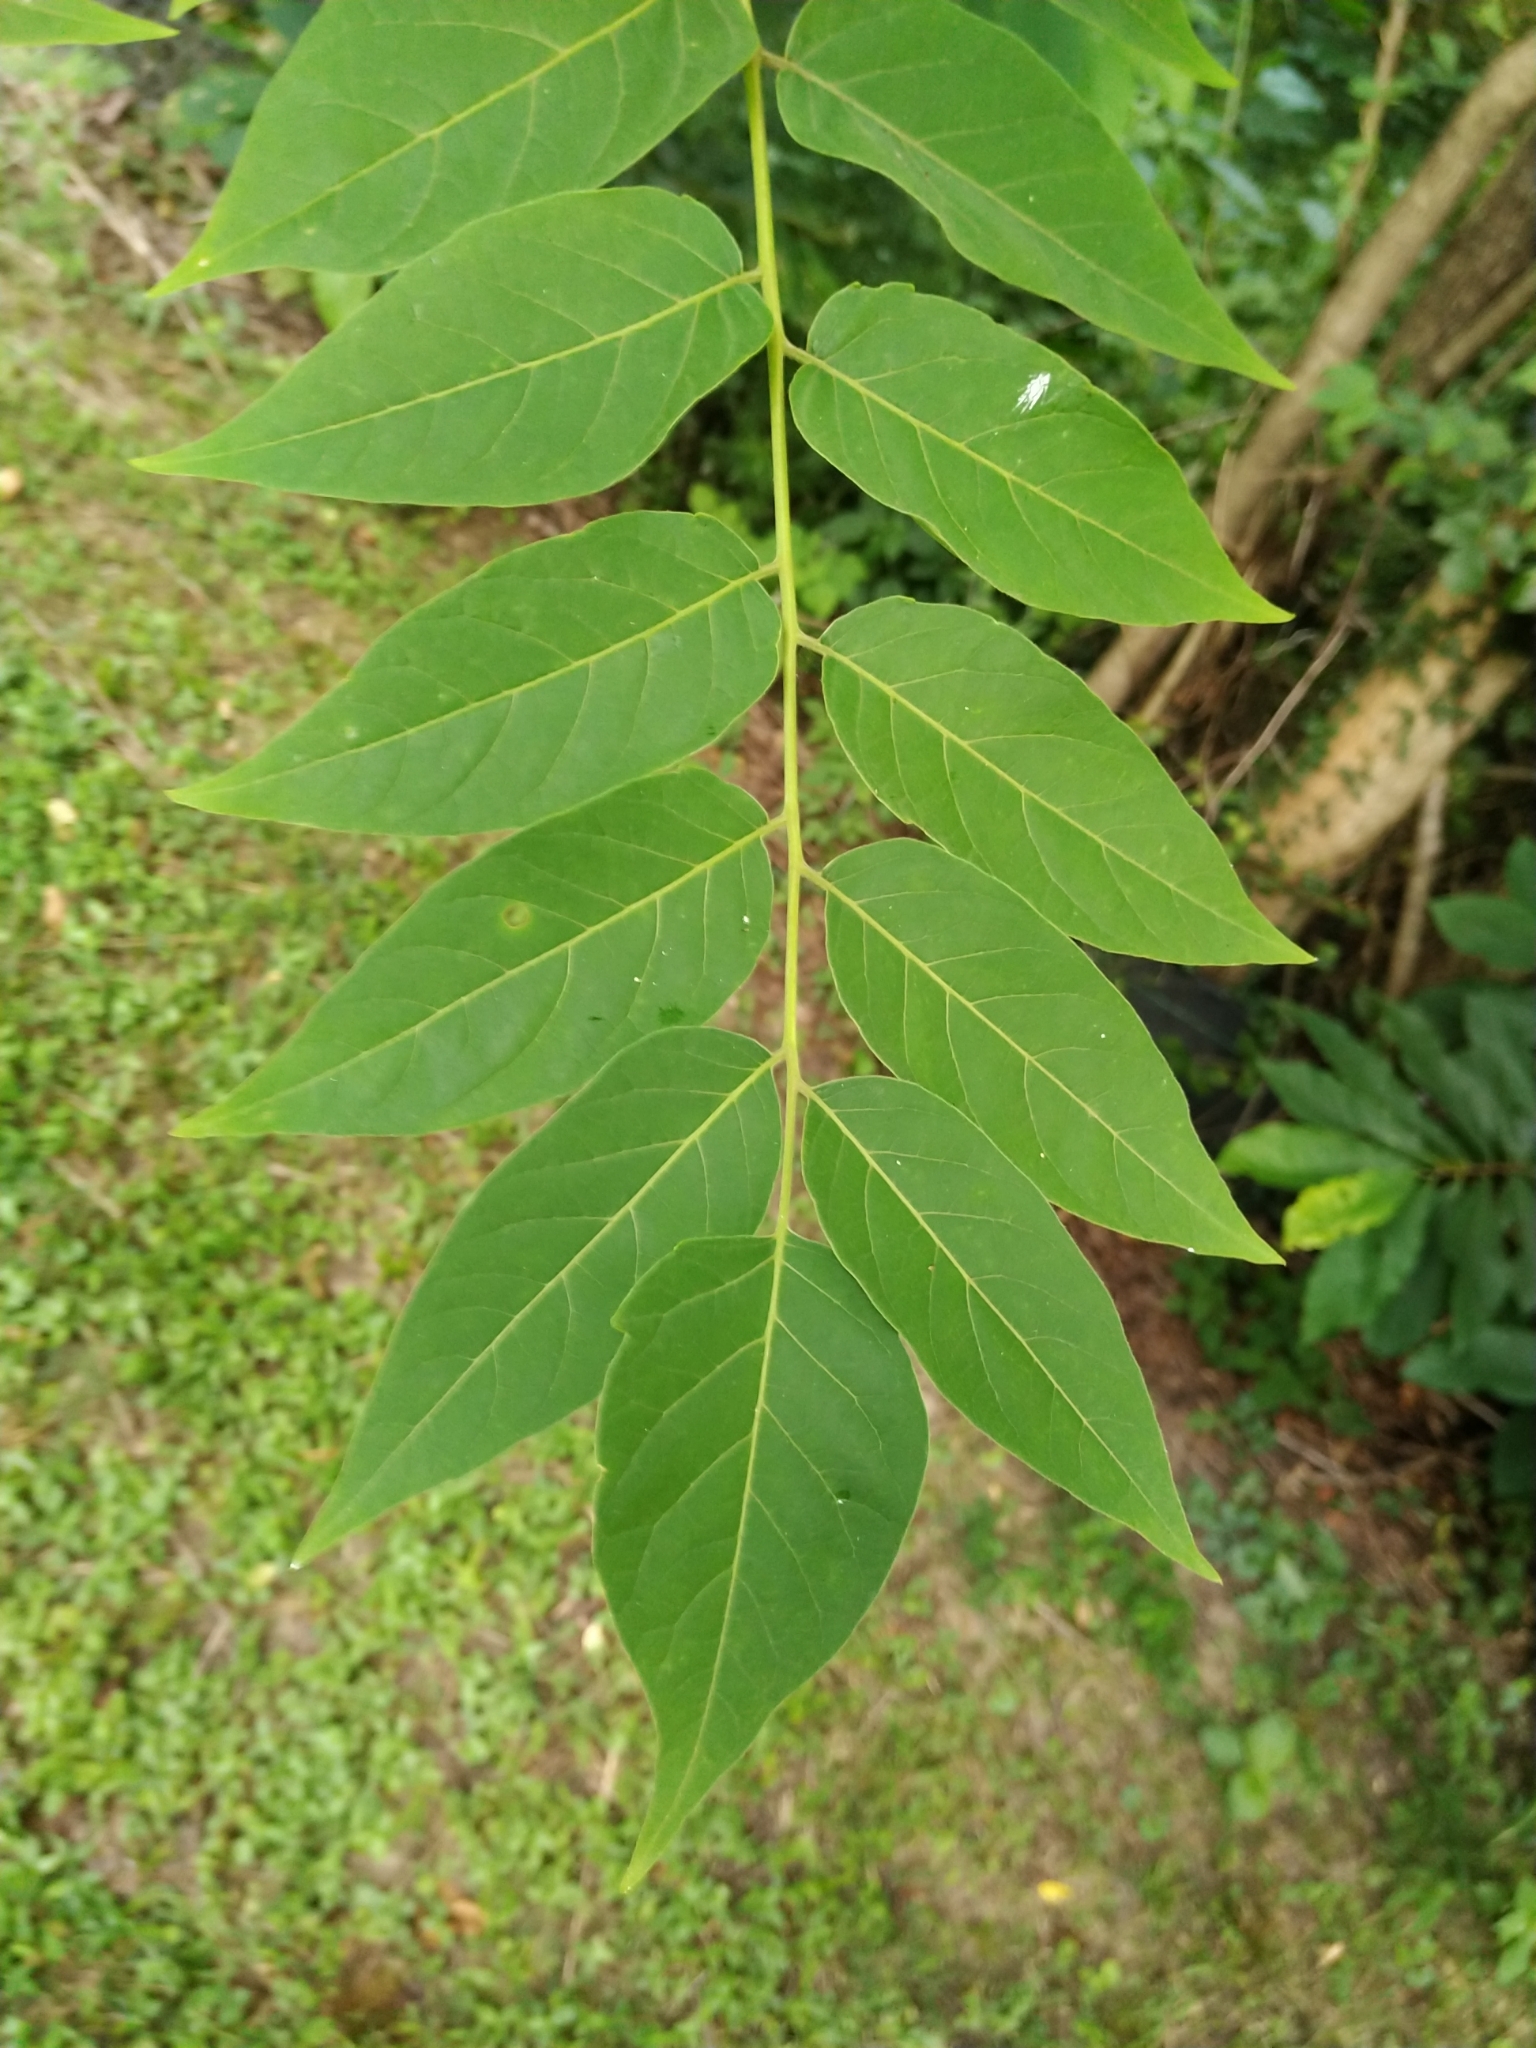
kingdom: Plantae
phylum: Tracheophyta
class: Magnoliopsida
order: Sapindales
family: Simaroubaceae
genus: Ailanthus
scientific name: Ailanthus altissima
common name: Tree-of-heaven
